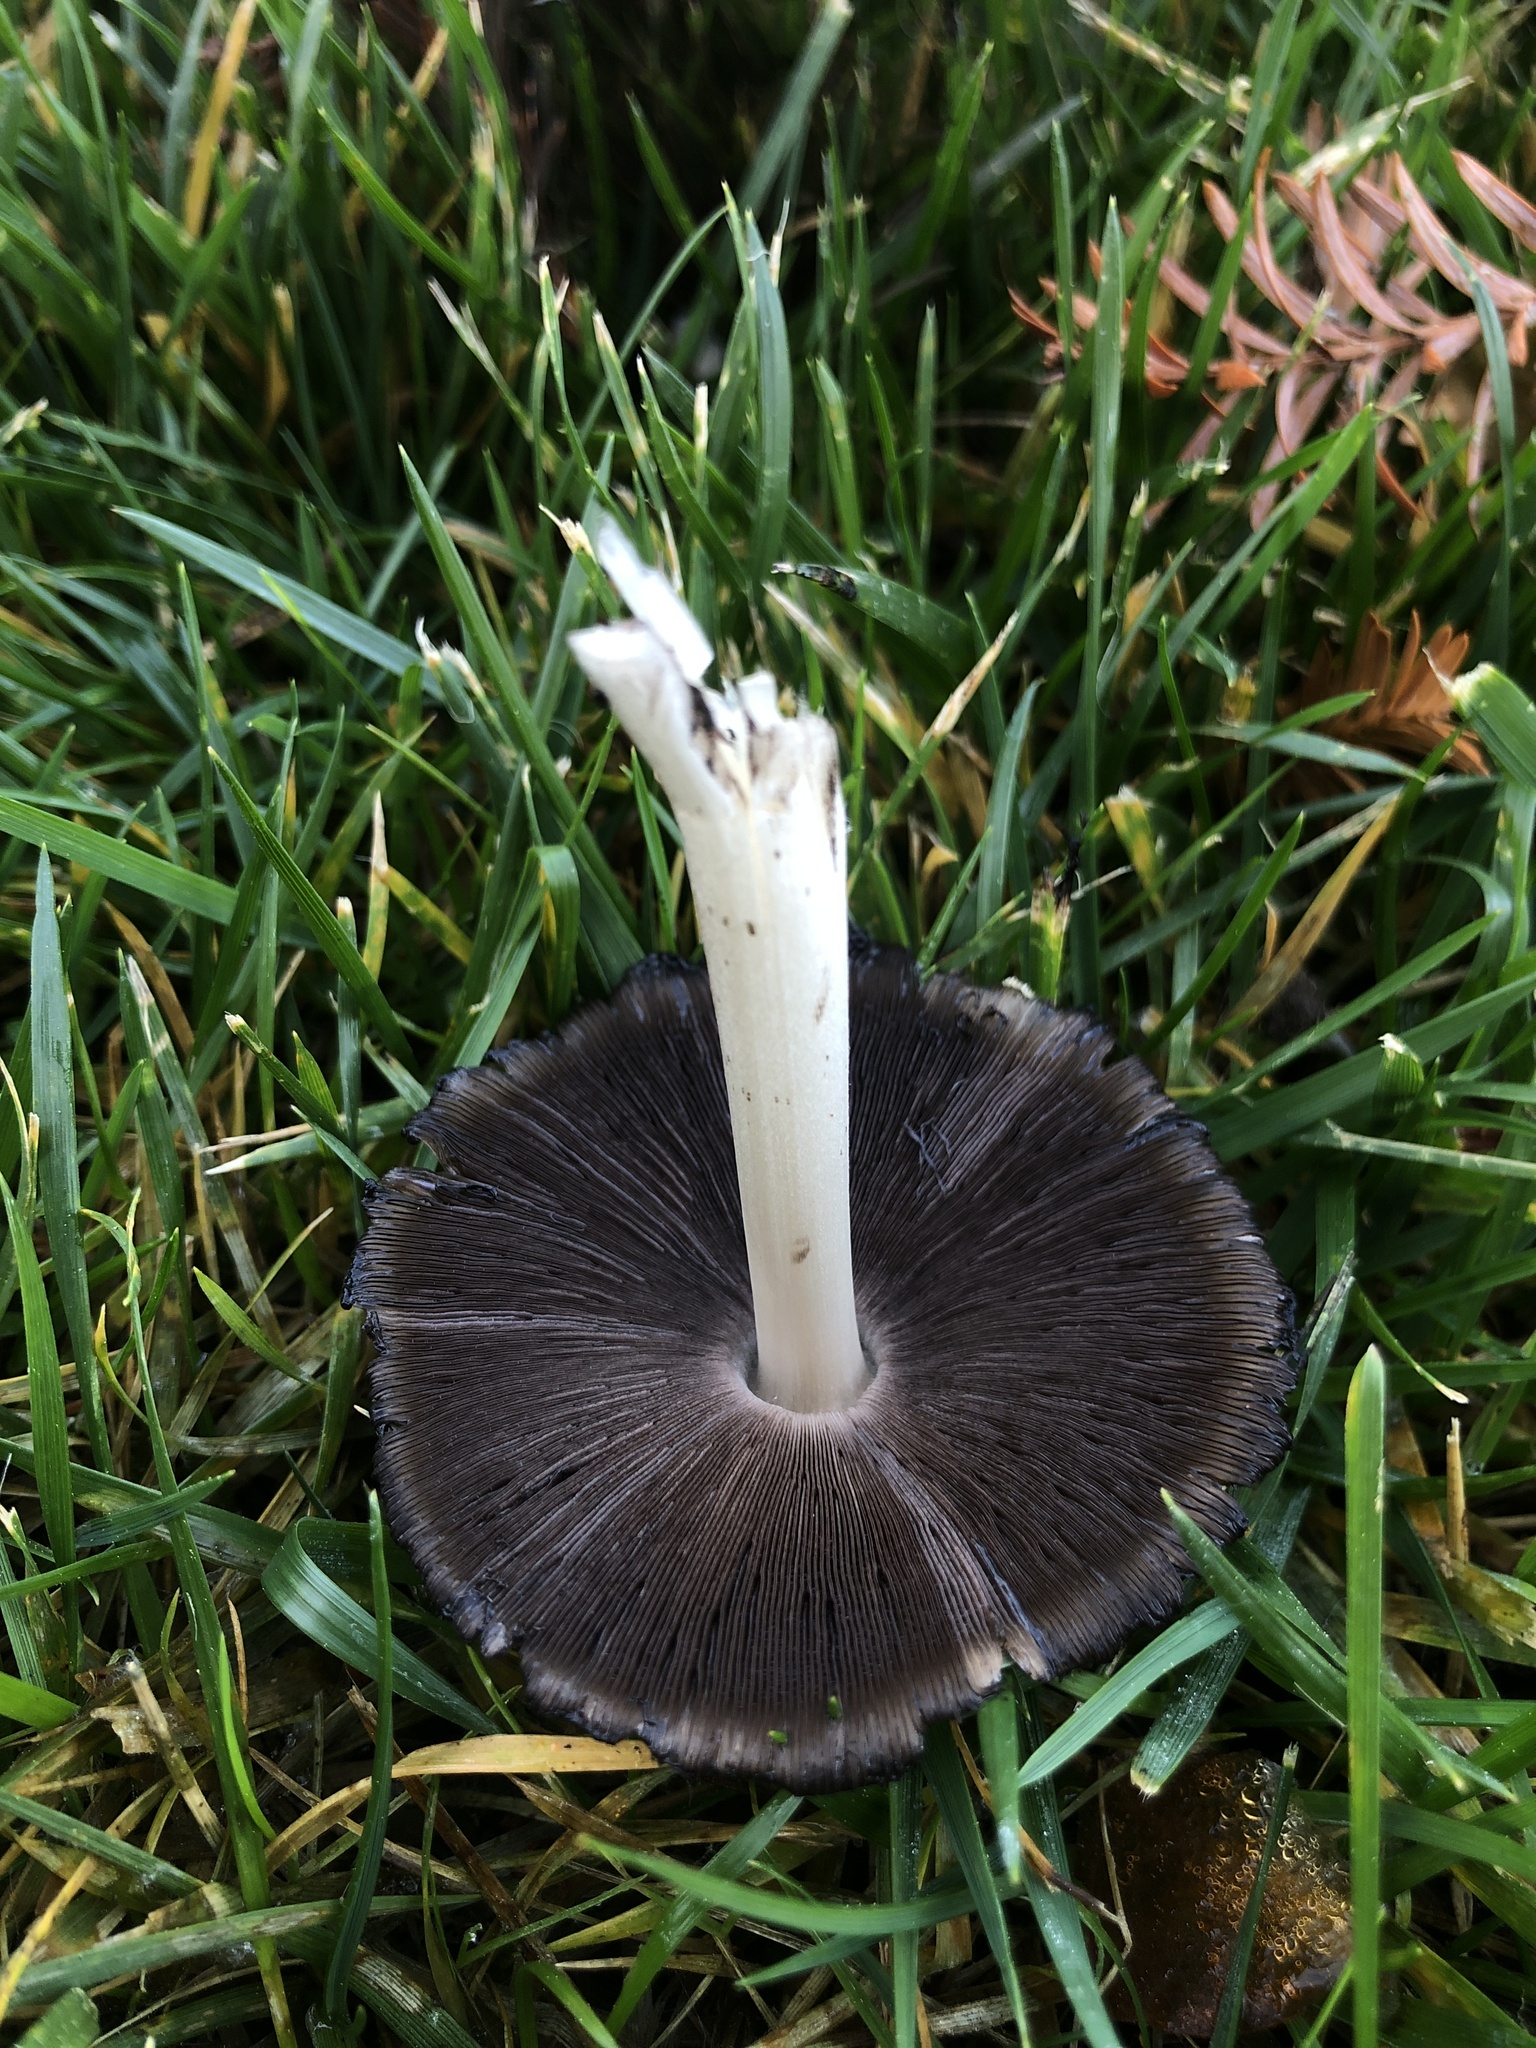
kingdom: Fungi
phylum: Basidiomycota
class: Agaricomycetes
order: Agaricales
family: Psathyrellaceae
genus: Coprinopsis
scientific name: Coprinopsis atramentaria
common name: Common ink-cap
